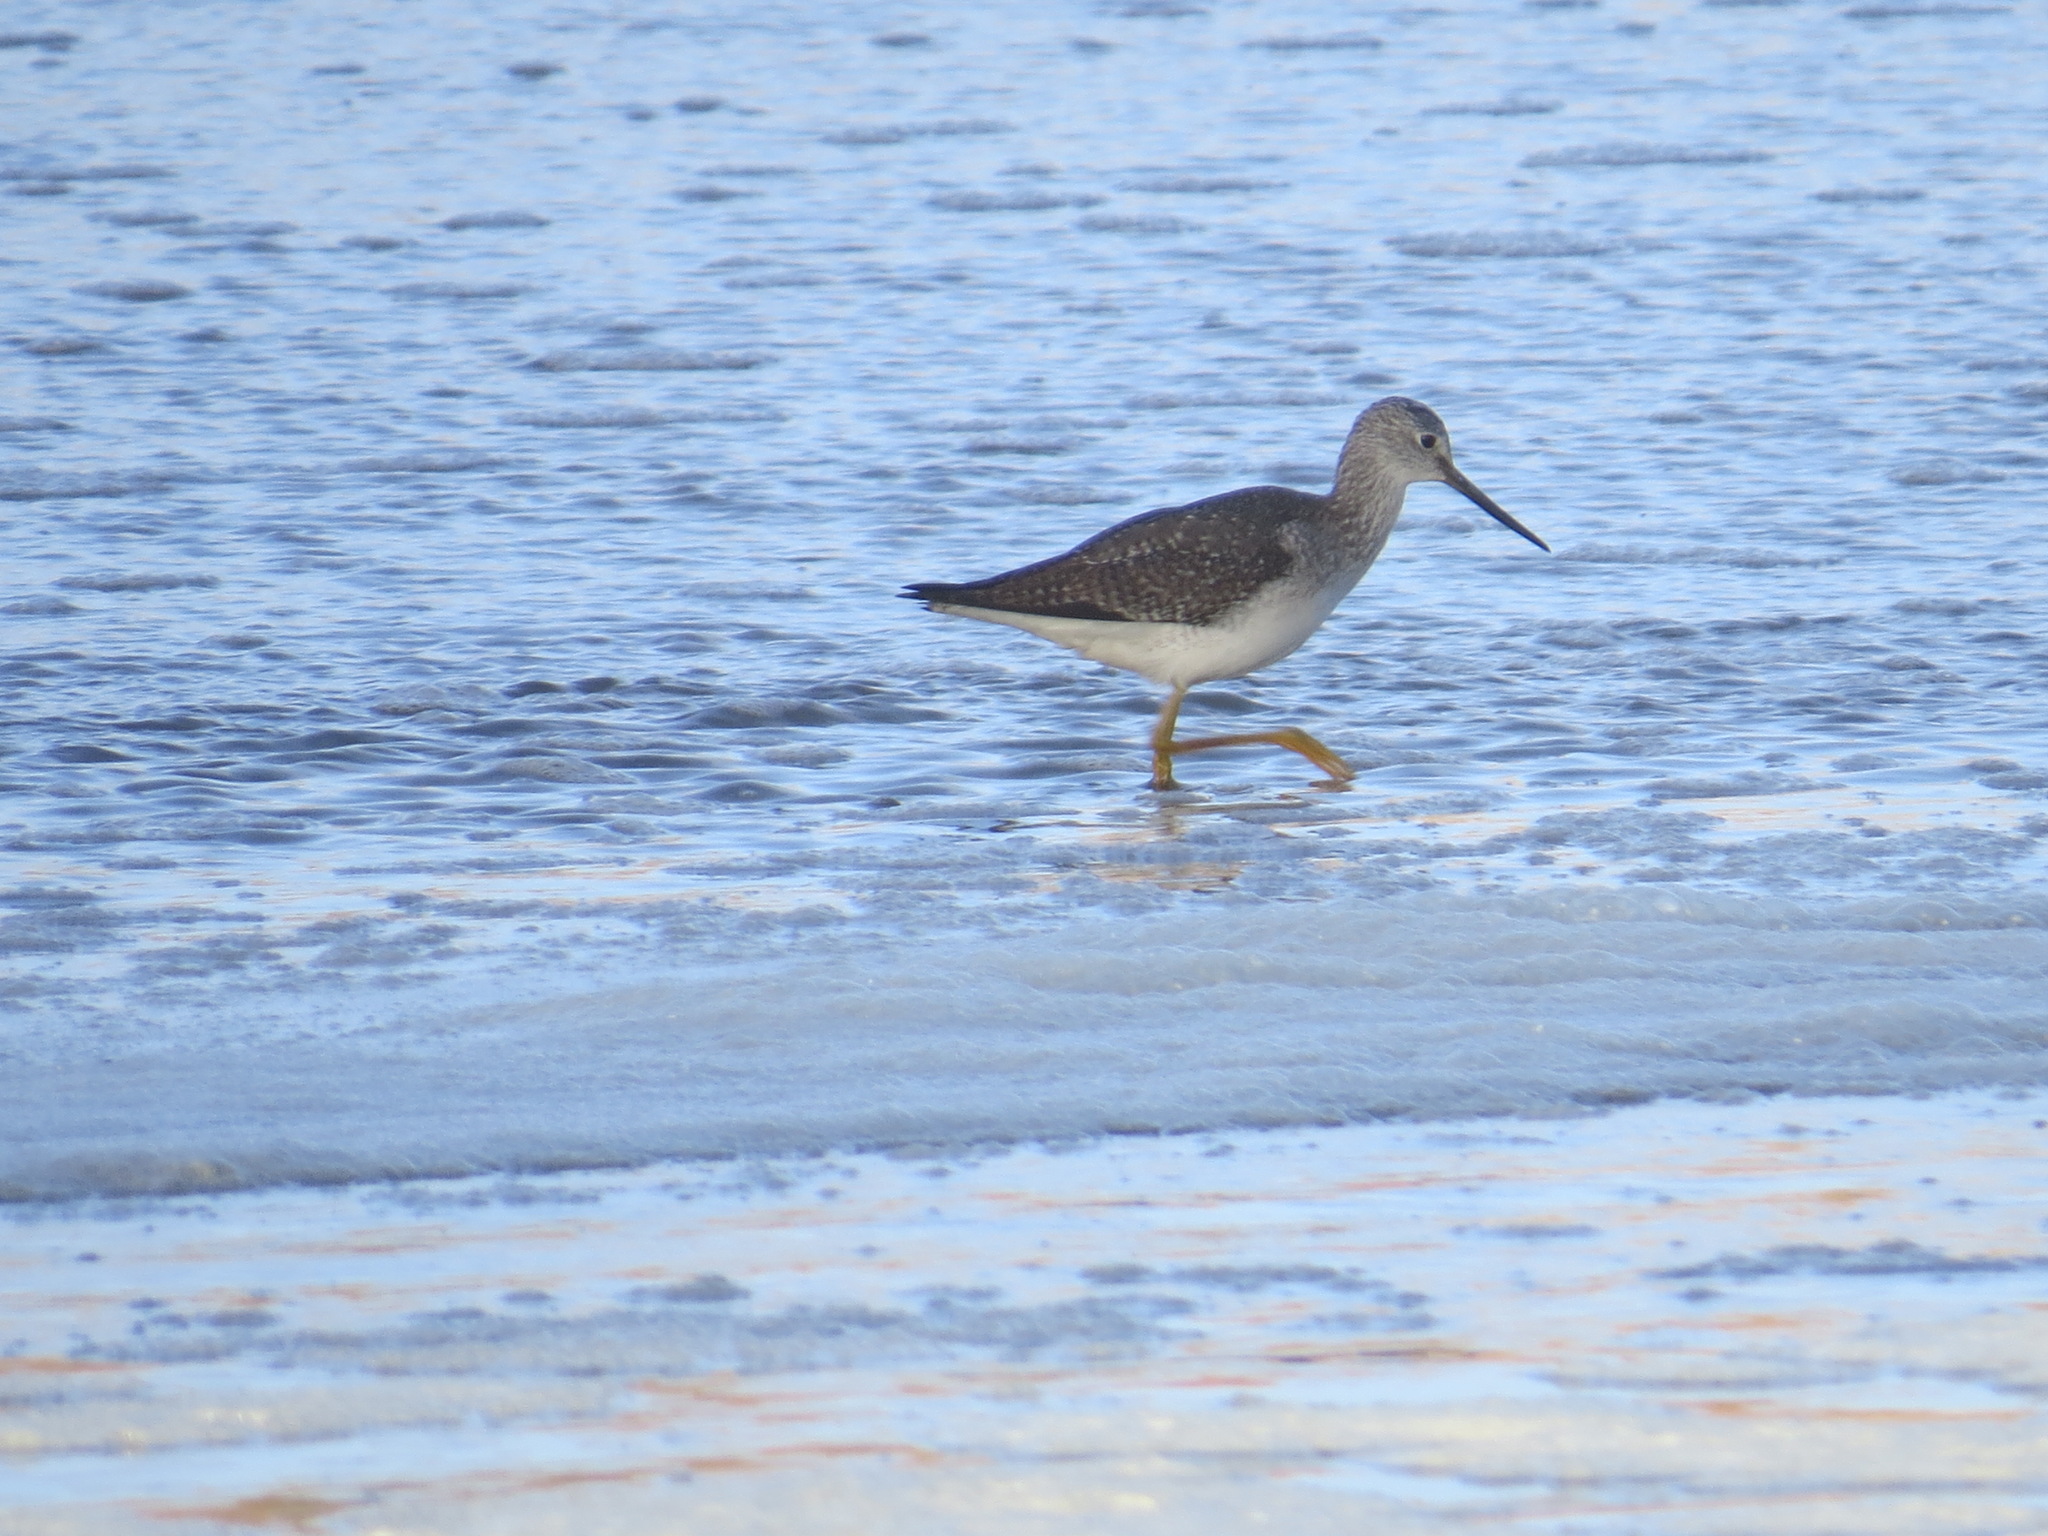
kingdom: Animalia
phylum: Chordata
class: Aves
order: Charadriiformes
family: Scolopacidae
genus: Tringa
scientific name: Tringa melanoleuca
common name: Greater yellowlegs
